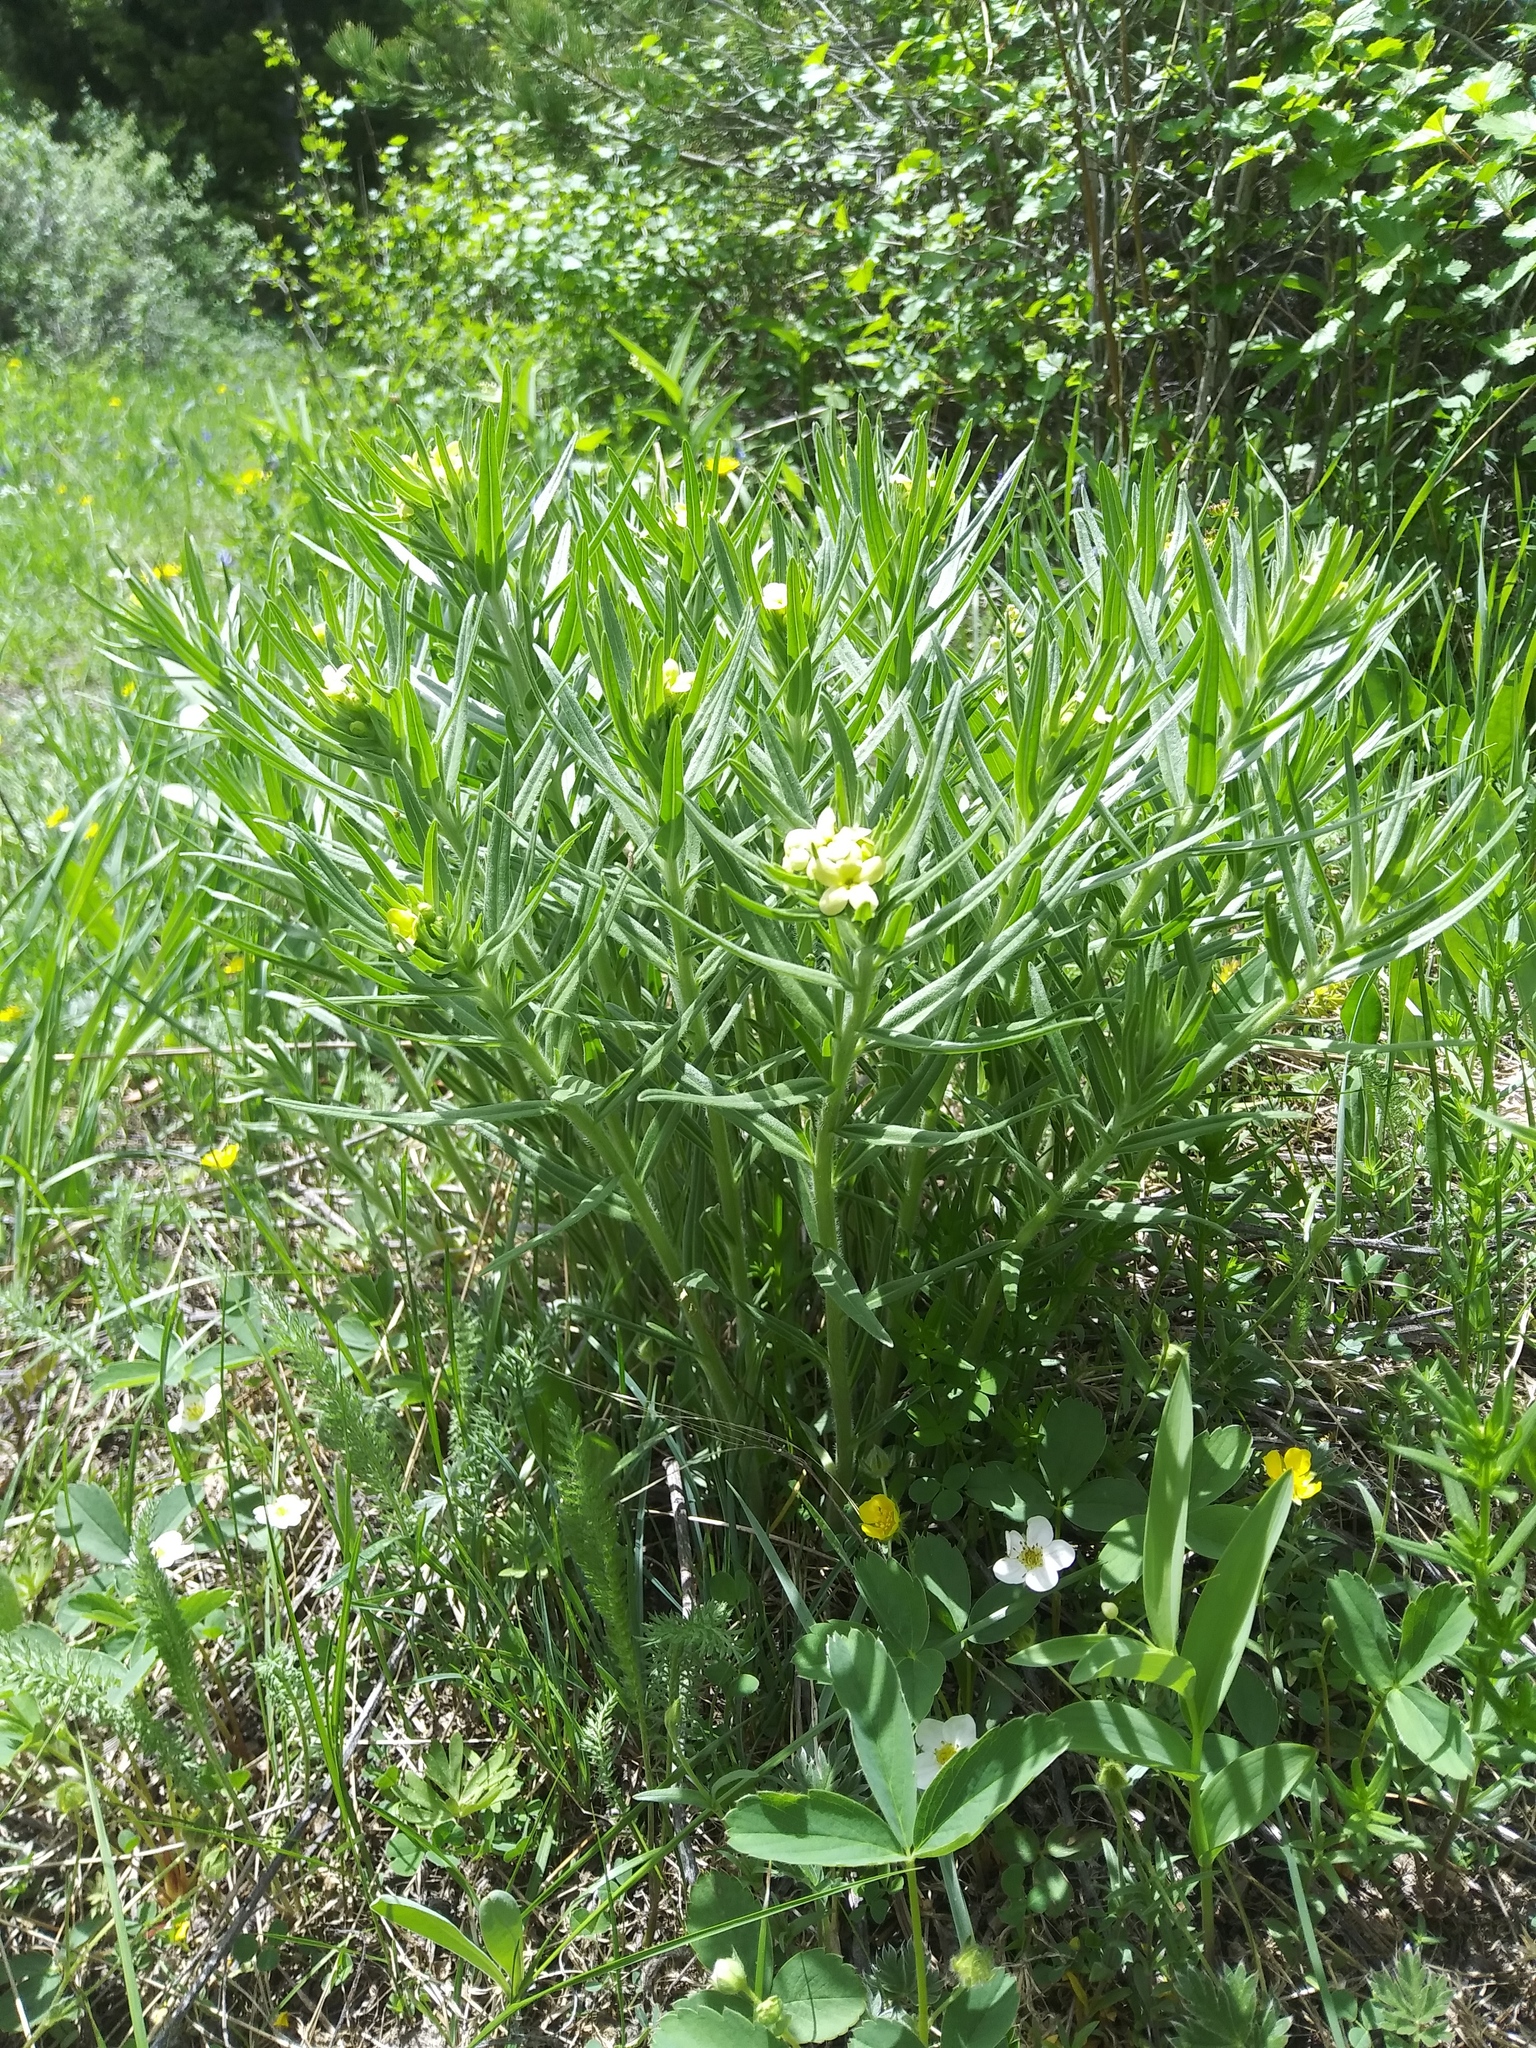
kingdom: Plantae
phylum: Tracheophyta
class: Magnoliopsida
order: Boraginales
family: Boraginaceae
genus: Lithospermum
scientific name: Lithospermum ruderale
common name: Western gromwell
